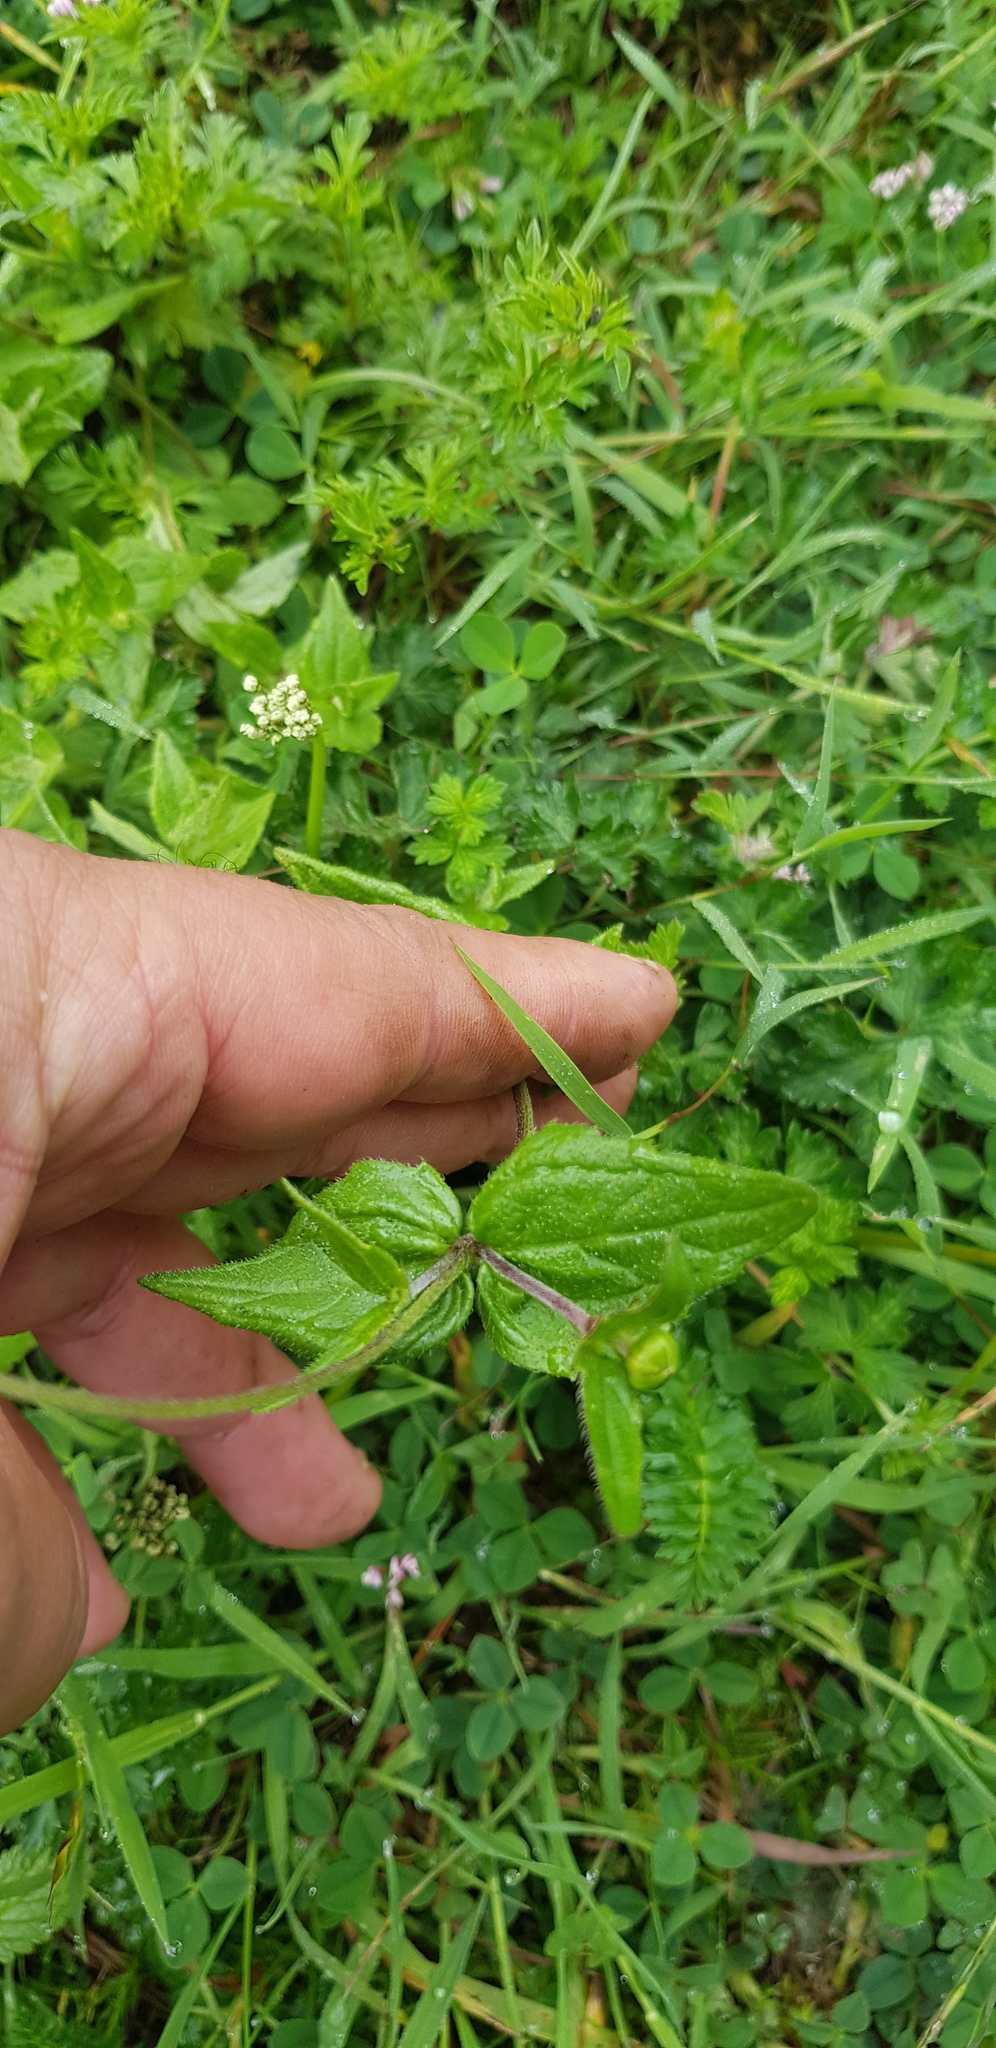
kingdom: Plantae
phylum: Tracheophyta
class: Magnoliopsida
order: Asterales
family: Asteraceae
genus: Sabazia
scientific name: Sabazia multiradiata
